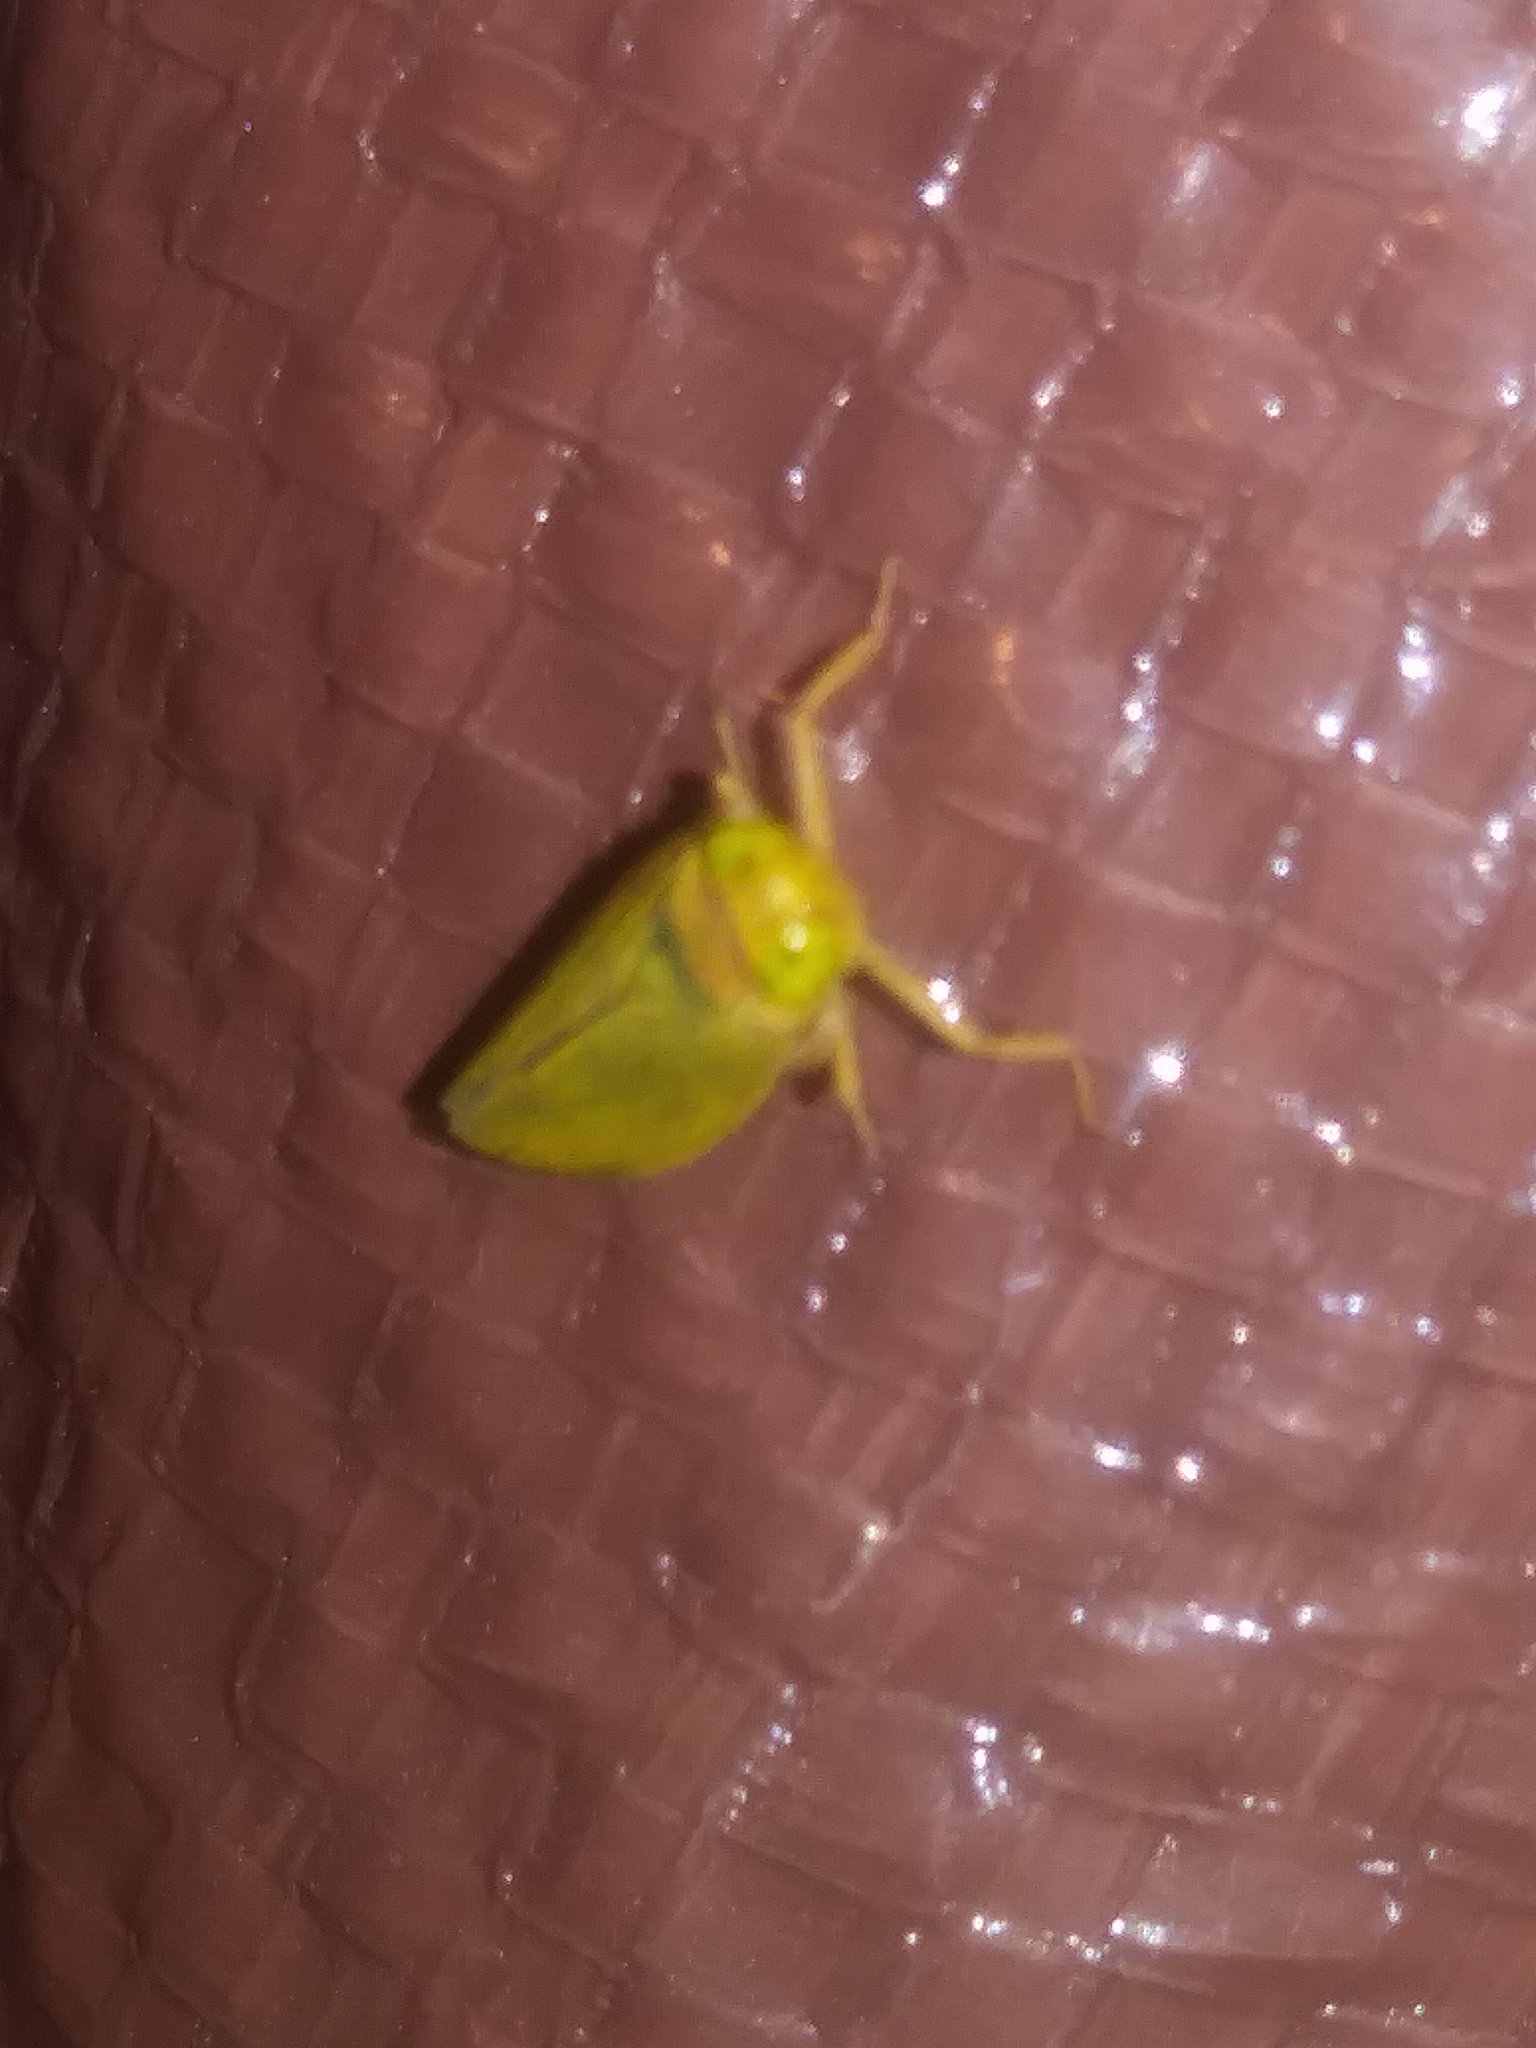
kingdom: Animalia
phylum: Arthropoda
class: Insecta
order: Hemiptera
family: Cicadellidae
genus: Jikradia
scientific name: Jikradia olitoria
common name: Coppery leafhopper
